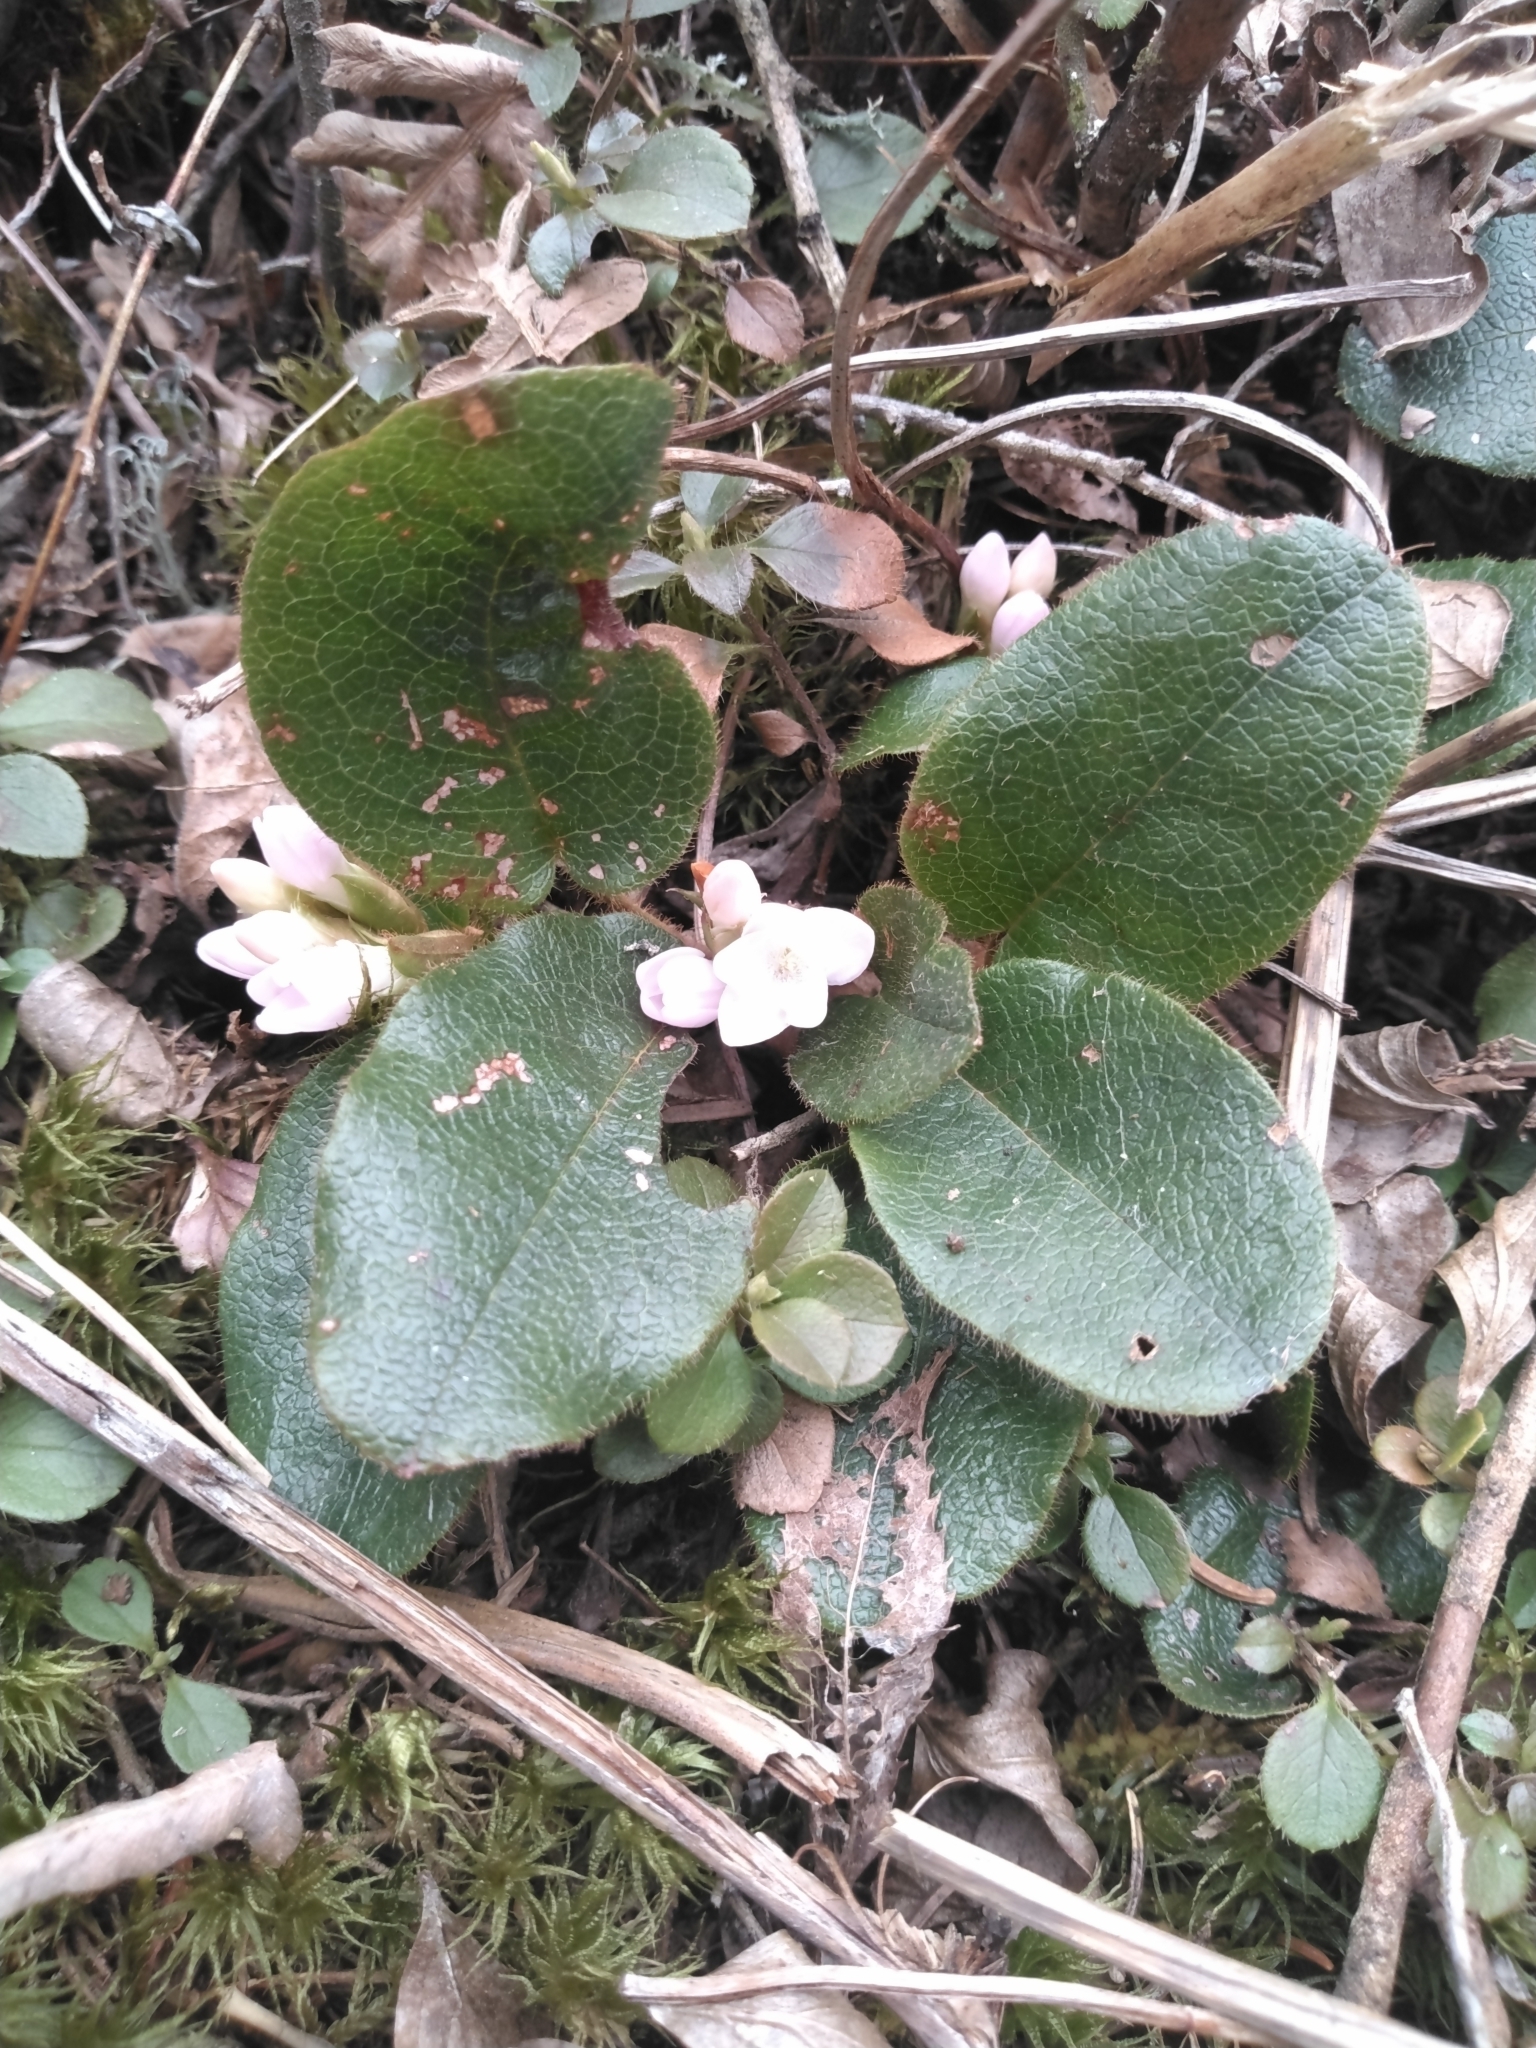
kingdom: Plantae
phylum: Tracheophyta
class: Magnoliopsida
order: Ericales
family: Ericaceae
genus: Epigaea
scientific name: Epigaea repens
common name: Gravelroot
